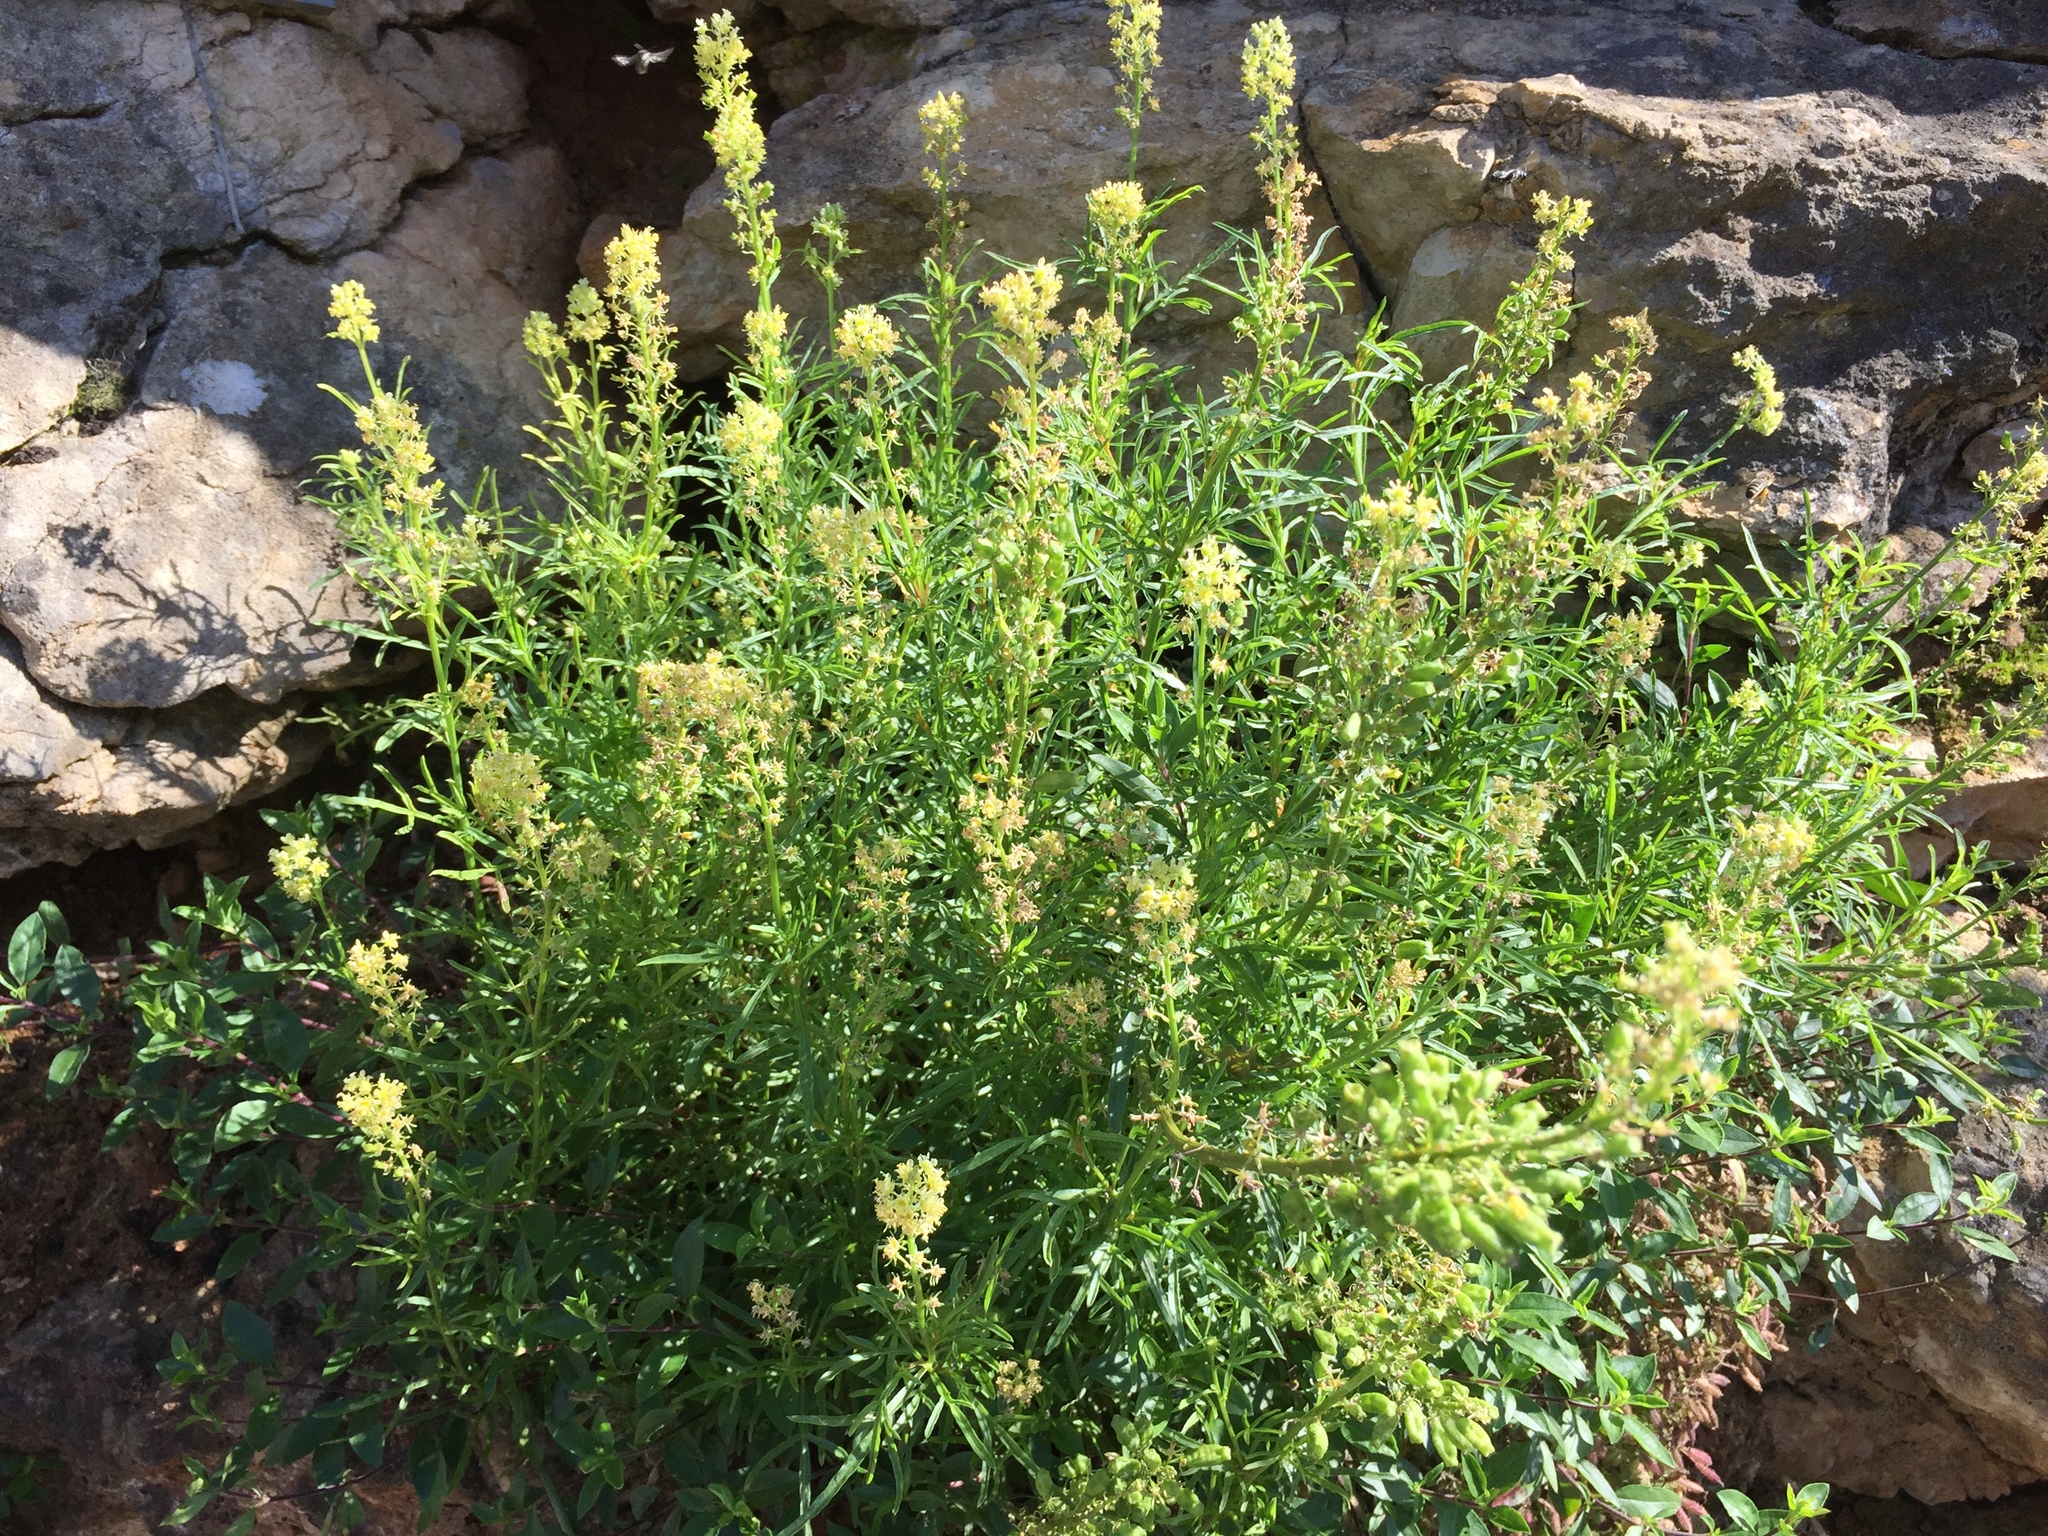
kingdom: Plantae
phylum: Tracheophyta
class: Magnoliopsida
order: Brassicales
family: Resedaceae
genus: Reseda
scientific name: Reseda lutea
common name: Wild mignonette
